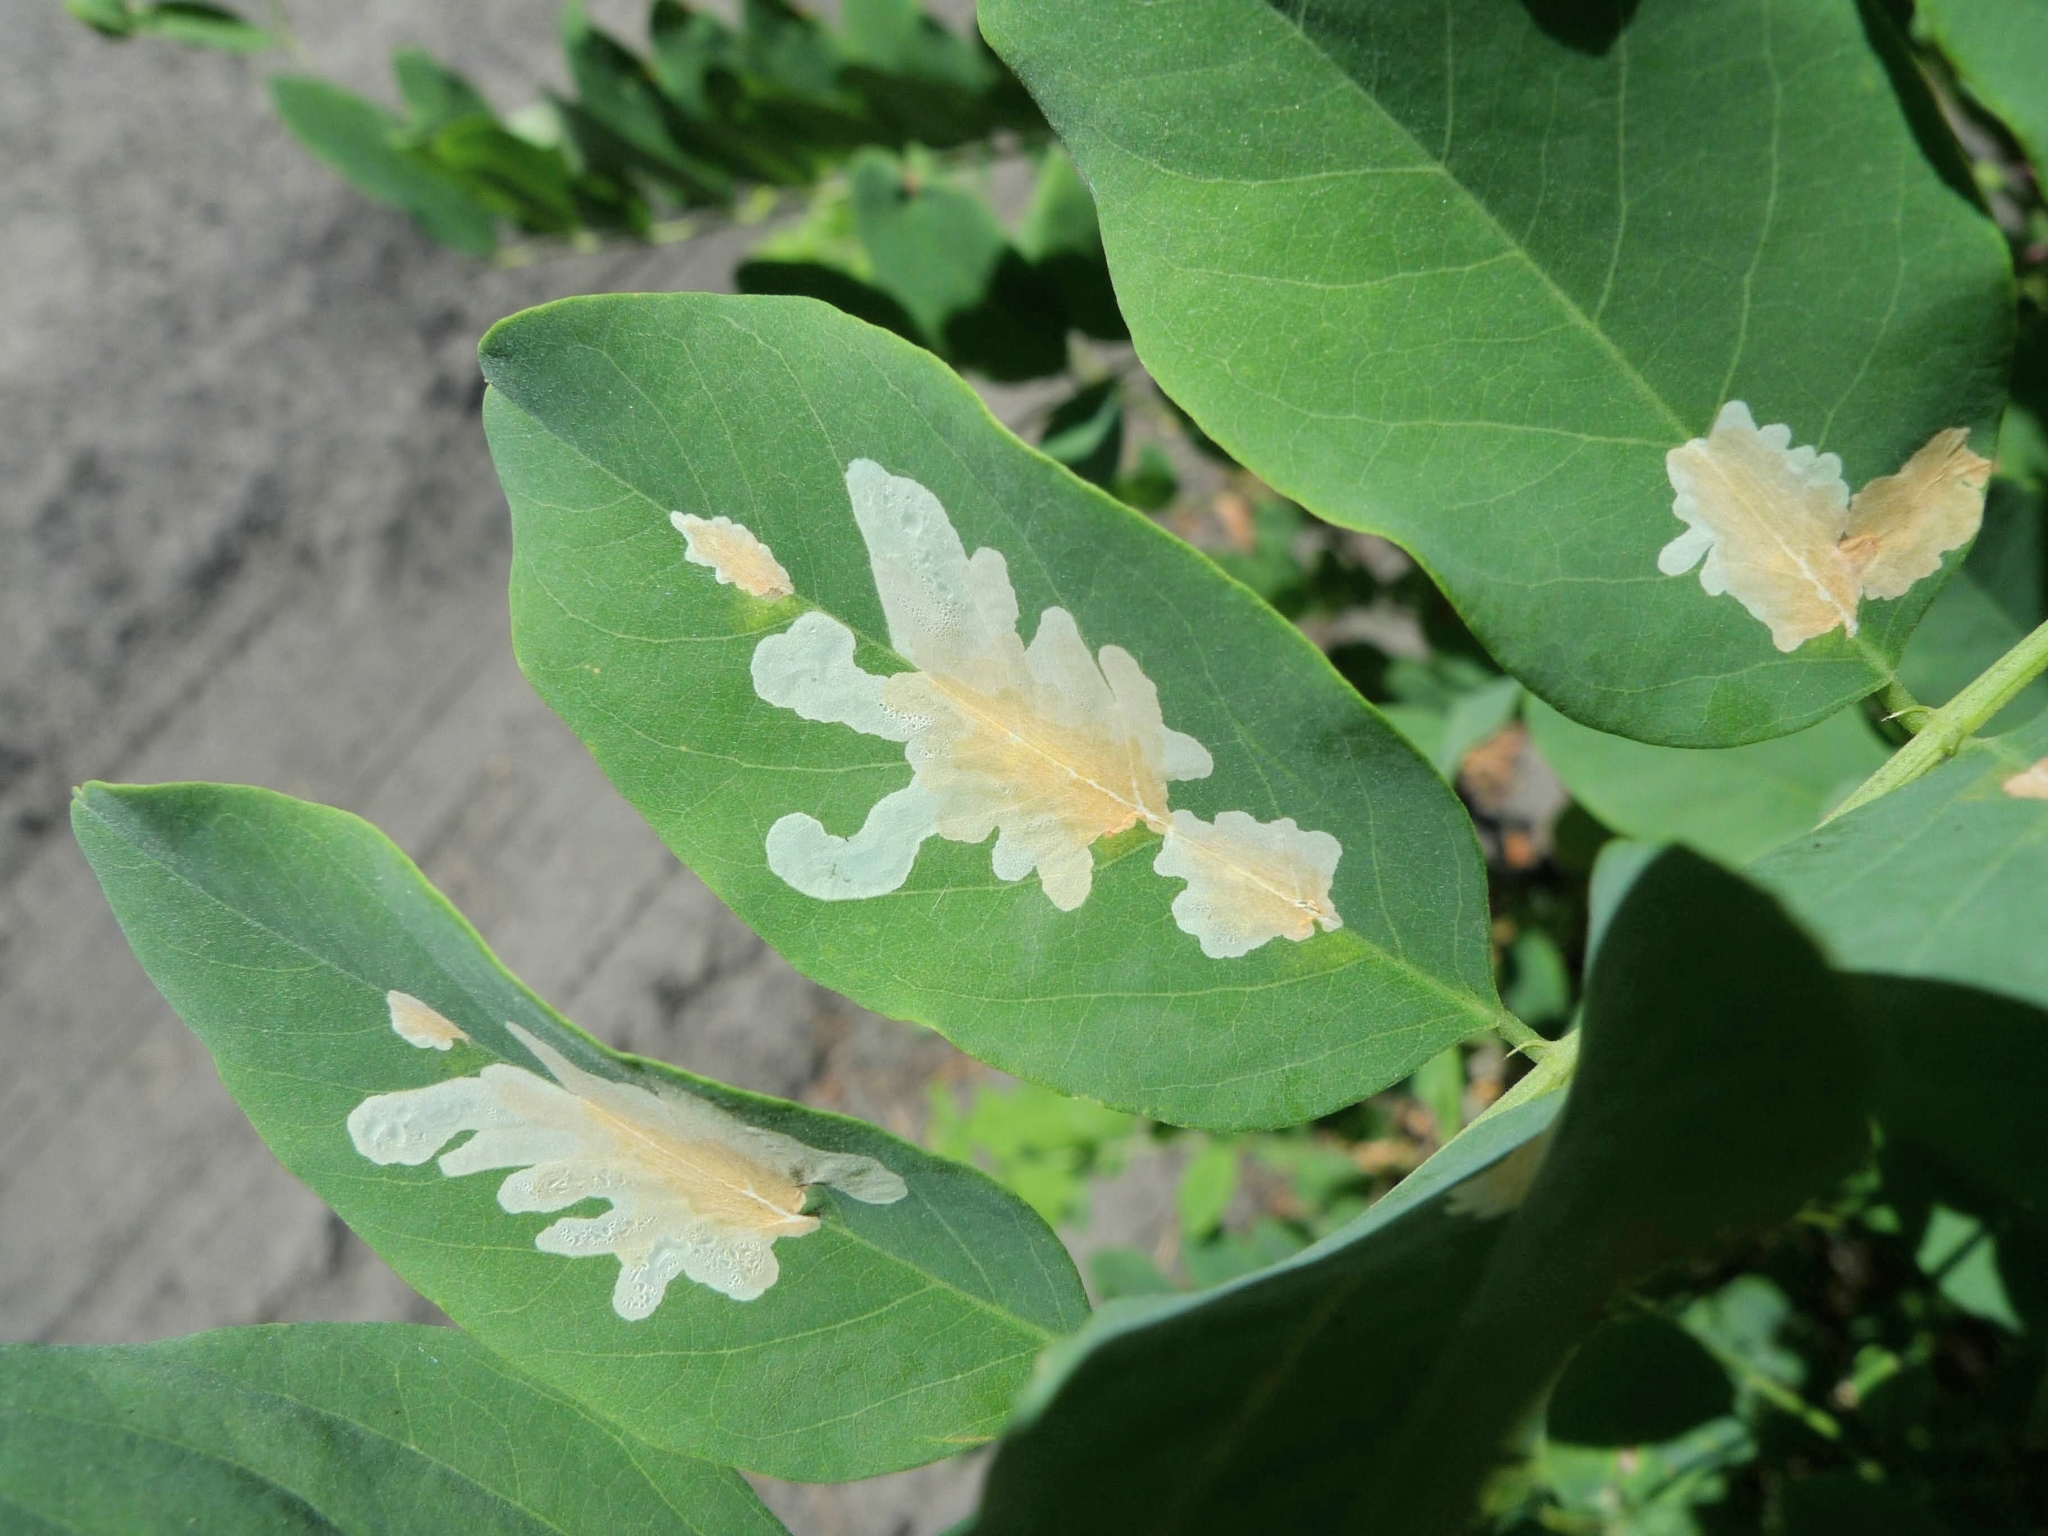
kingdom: Animalia
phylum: Arthropoda
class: Insecta
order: Lepidoptera
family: Gracillariidae
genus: Parectopa
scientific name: Parectopa robiniella
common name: Locust digitate leafminer
